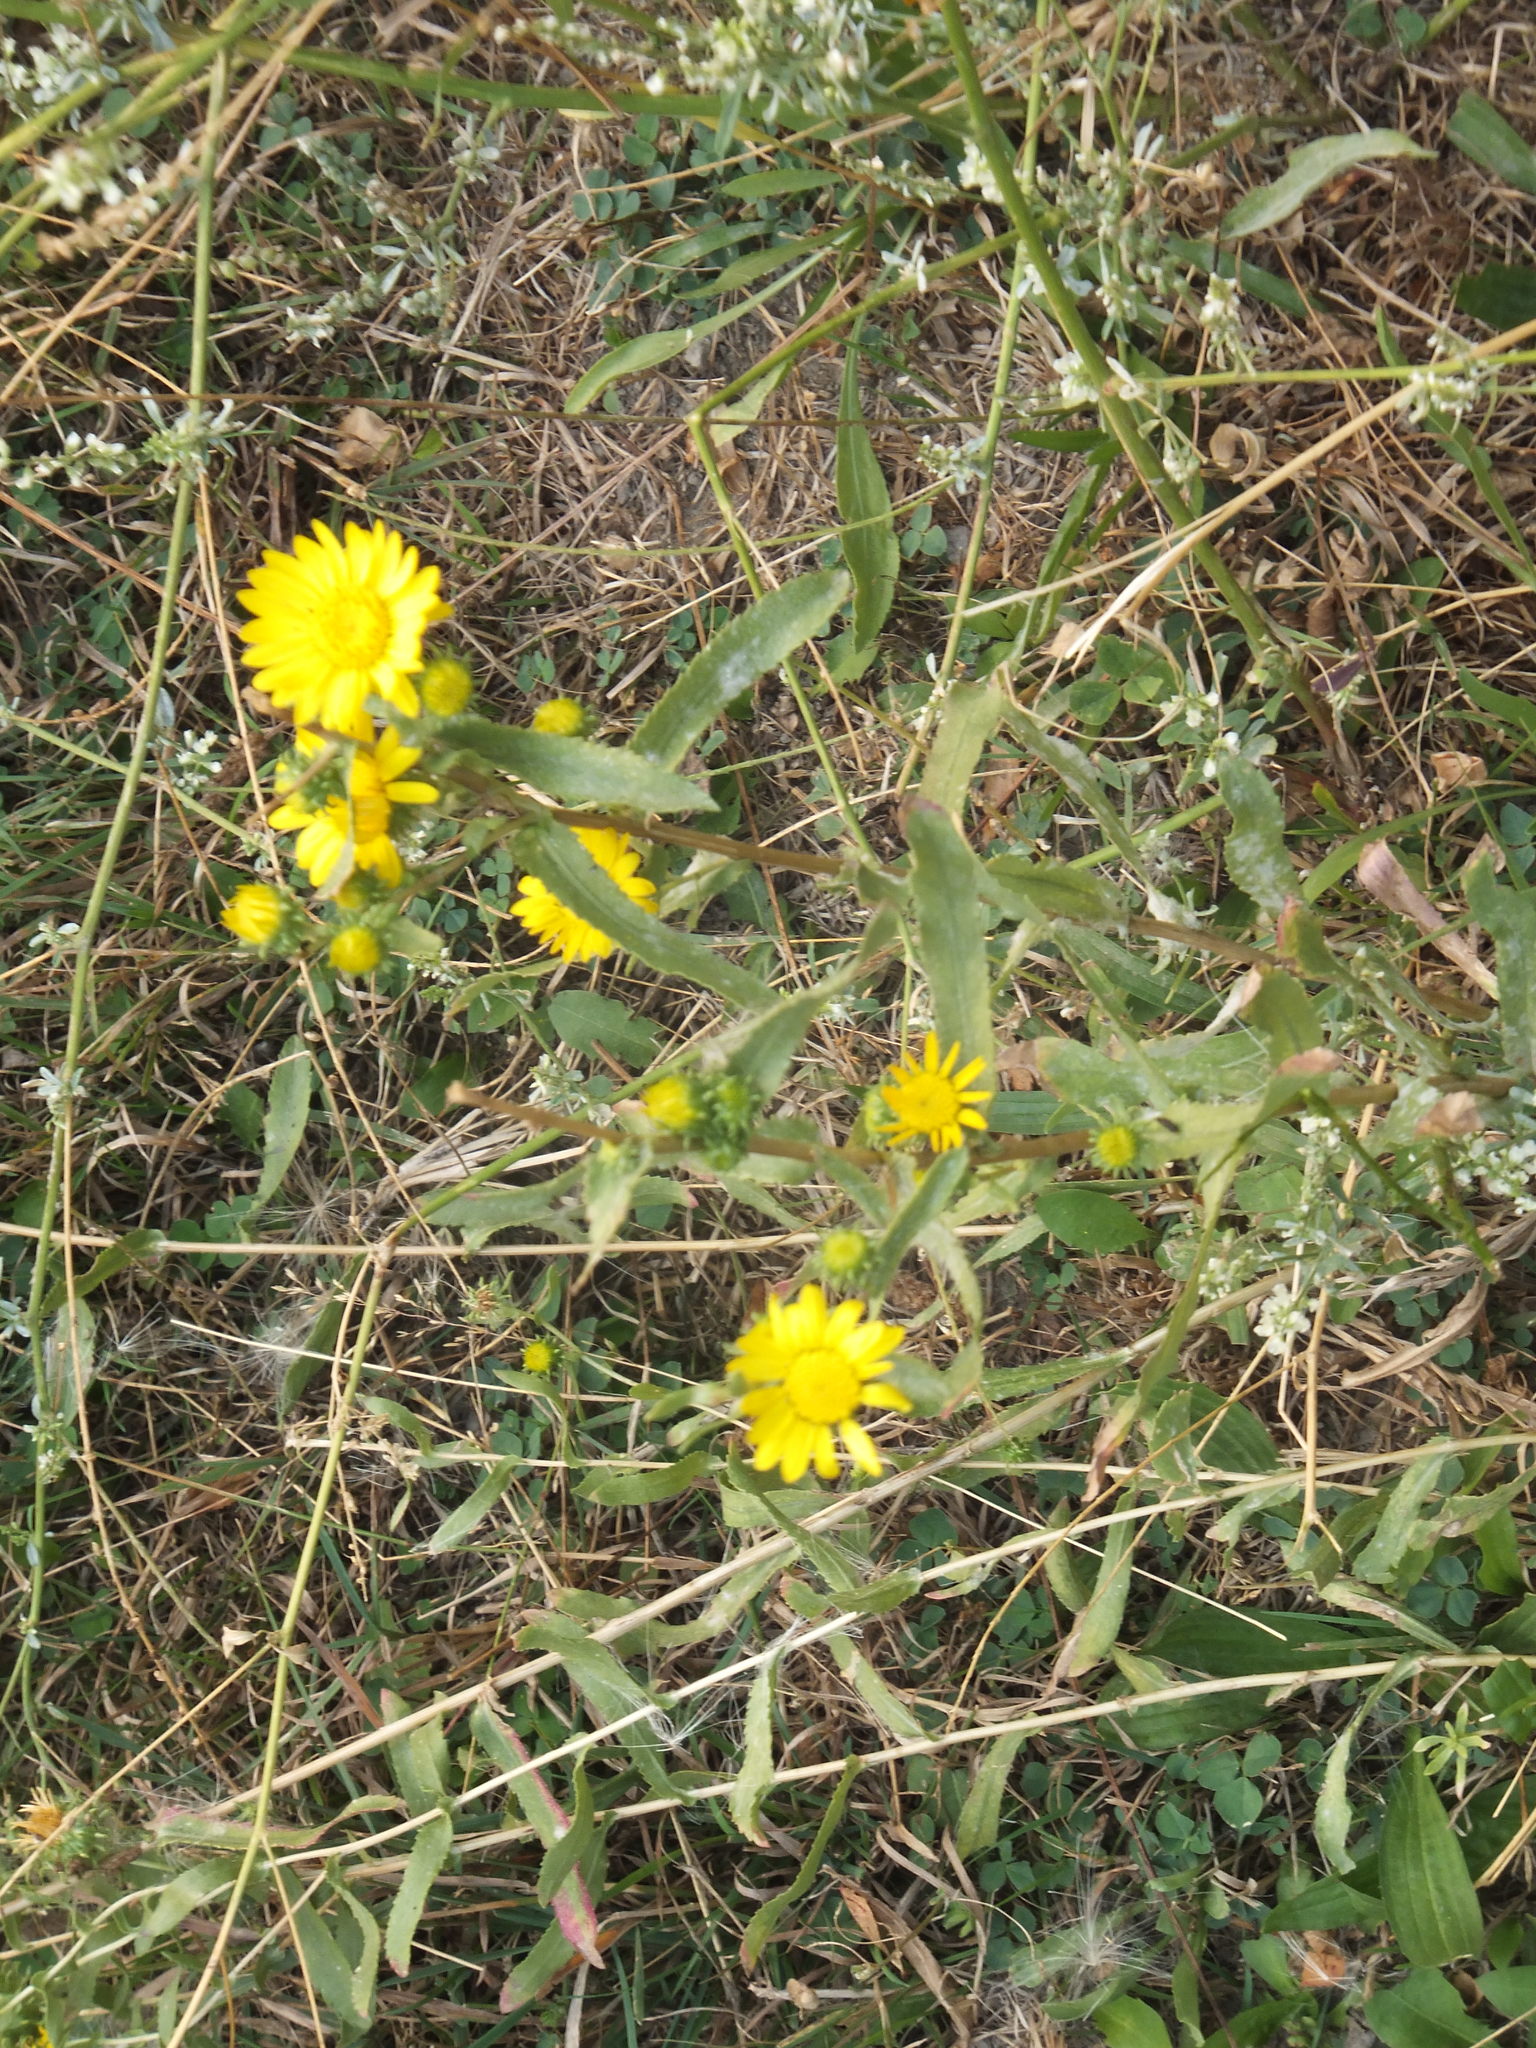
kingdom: Plantae
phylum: Tracheophyta
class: Magnoliopsida
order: Asterales
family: Asteraceae
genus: Grindelia
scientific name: Grindelia squarrosa
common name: Curly-cup gumweed
